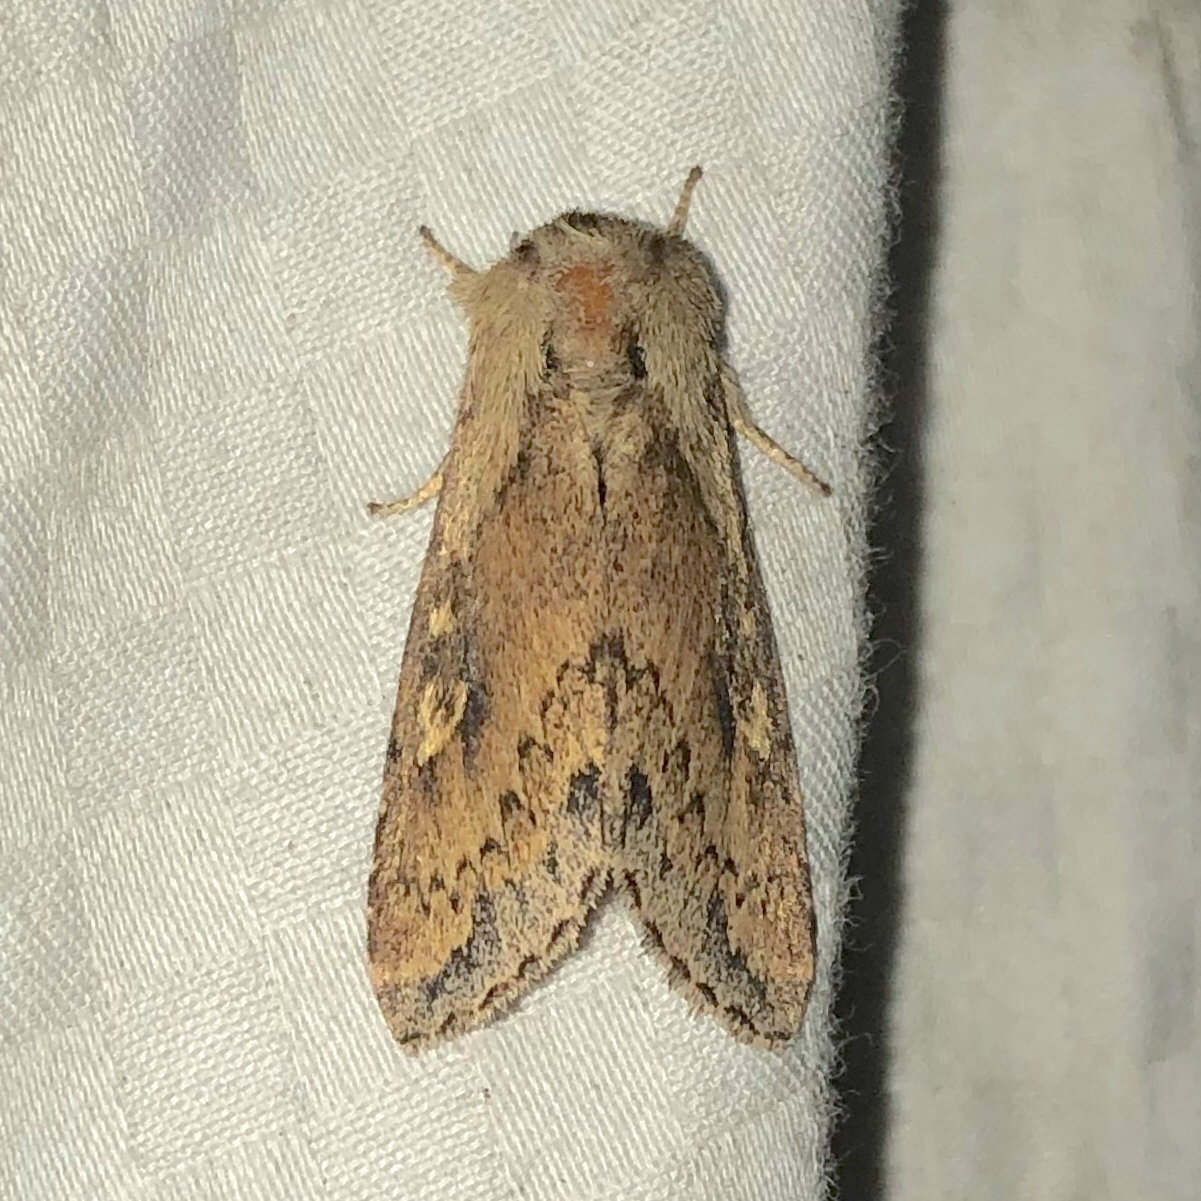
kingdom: Animalia
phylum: Arthropoda
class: Insecta
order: Lepidoptera
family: Noctuidae
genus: Bellura
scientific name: Bellura vulnifica
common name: Black-tailed diver moth
